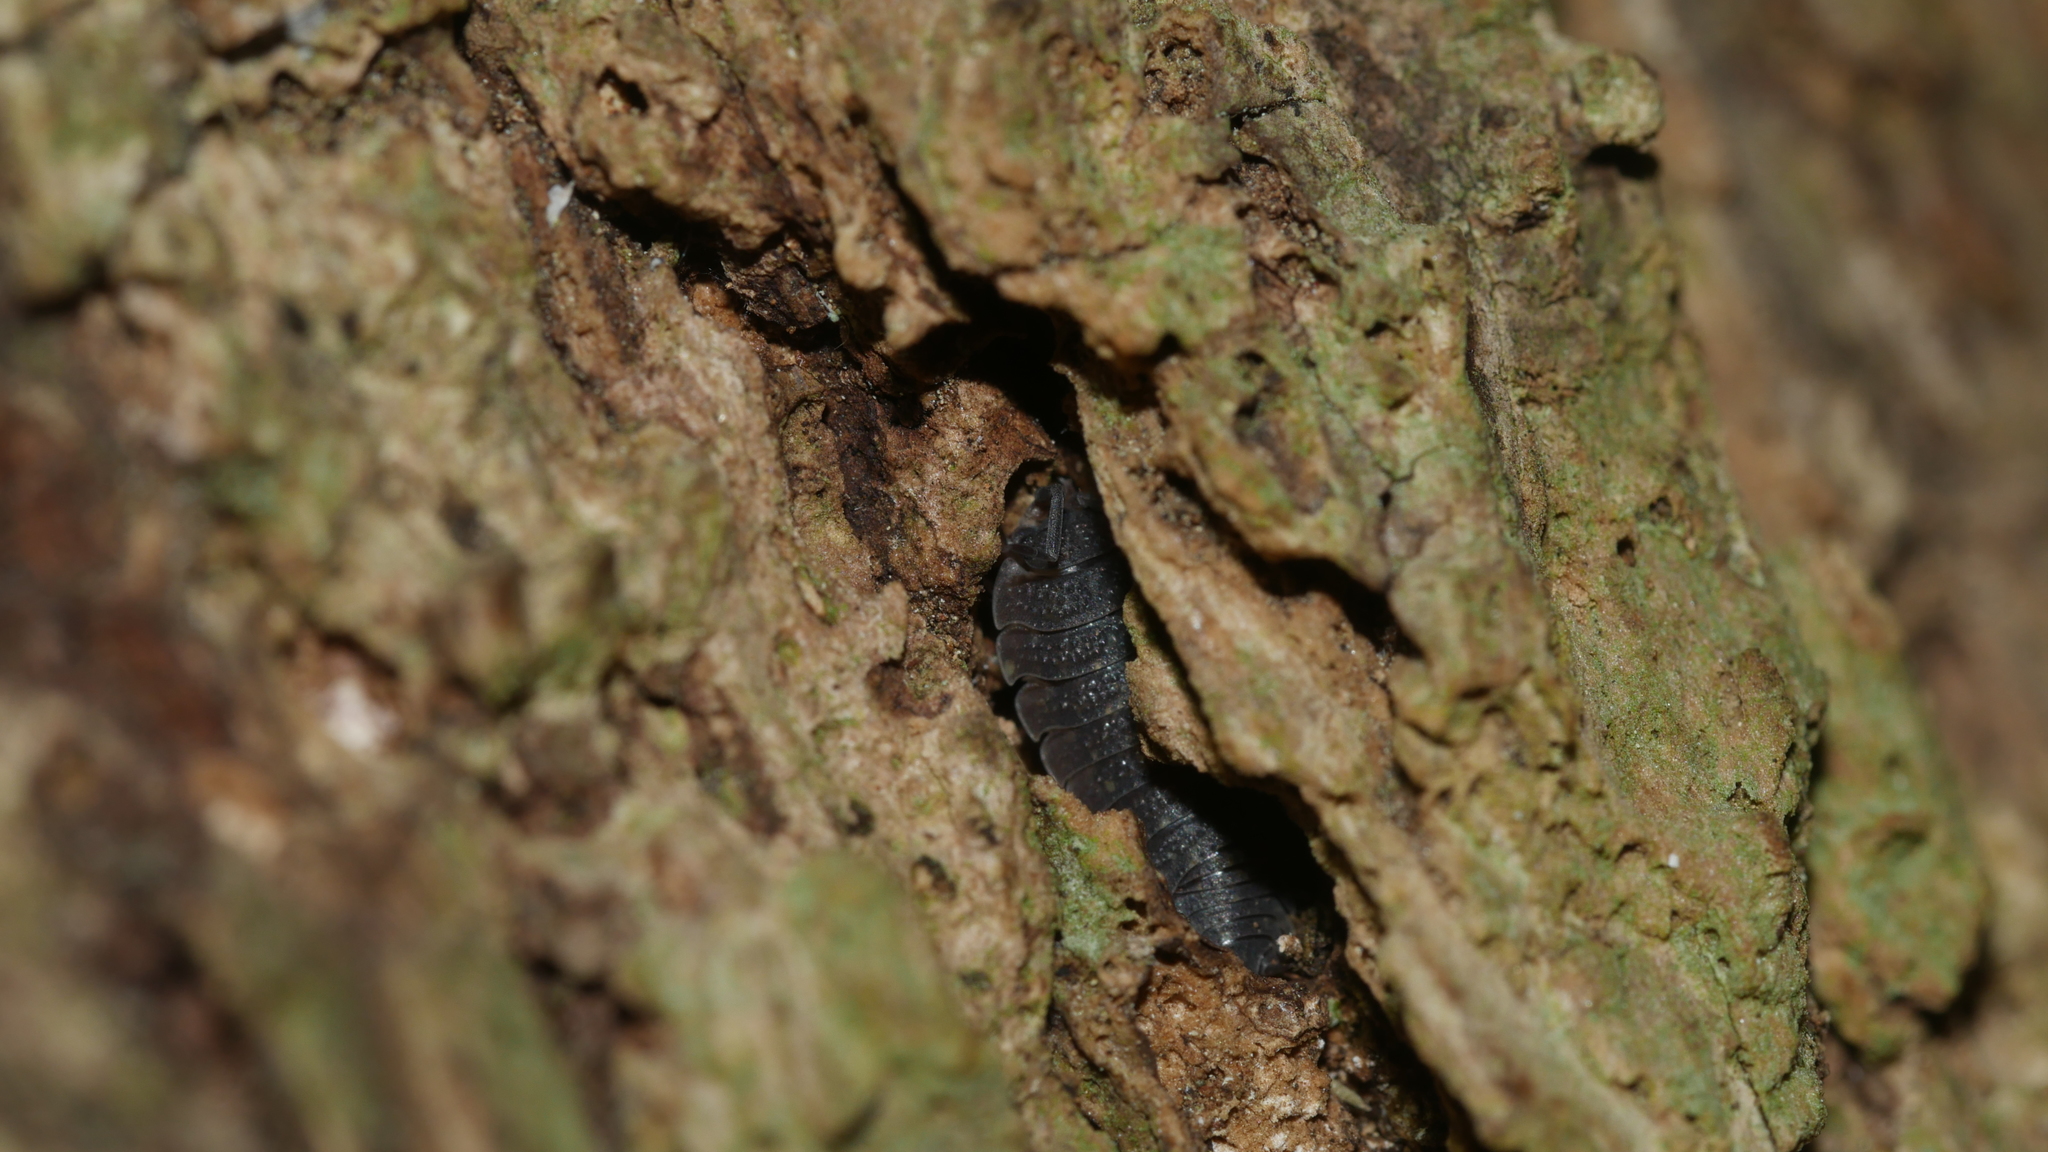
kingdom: Animalia
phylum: Arthropoda
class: Malacostraca
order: Isopoda
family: Porcellionidae
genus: Porcellio
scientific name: Porcellio scaber
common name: Common rough woodlouse
